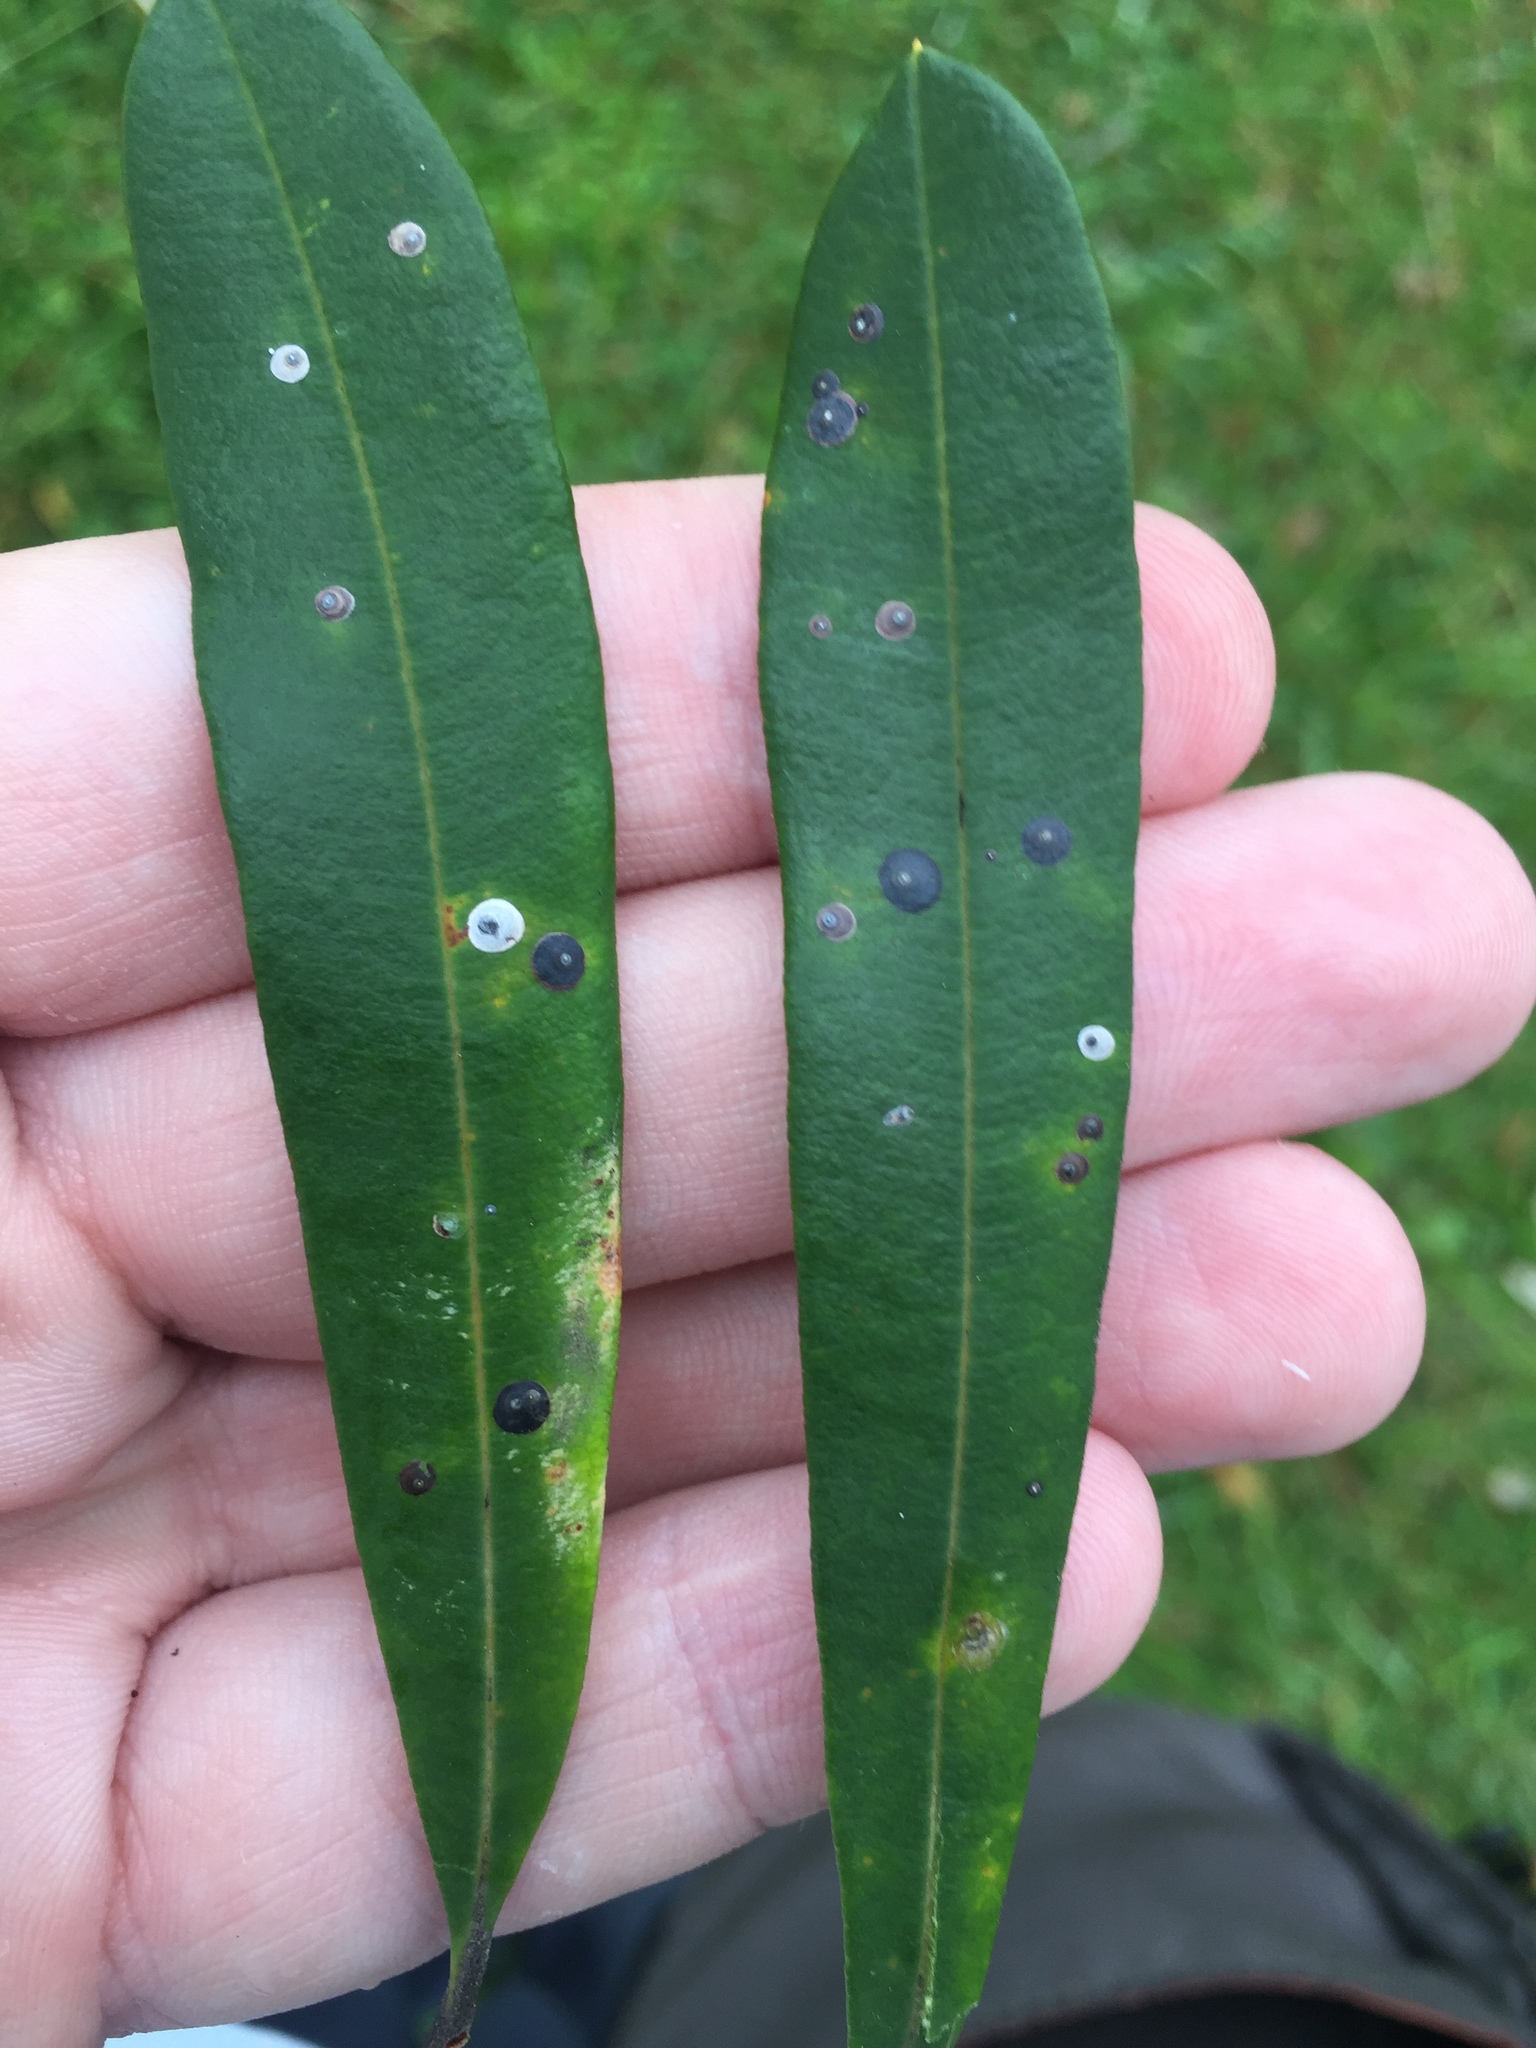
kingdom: Animalia
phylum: Arthropoda
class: Insecta
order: Hemiptera
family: Diaspididae
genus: Lindingaspis
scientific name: Lindingaspis rossi
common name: Araucaria black scale
